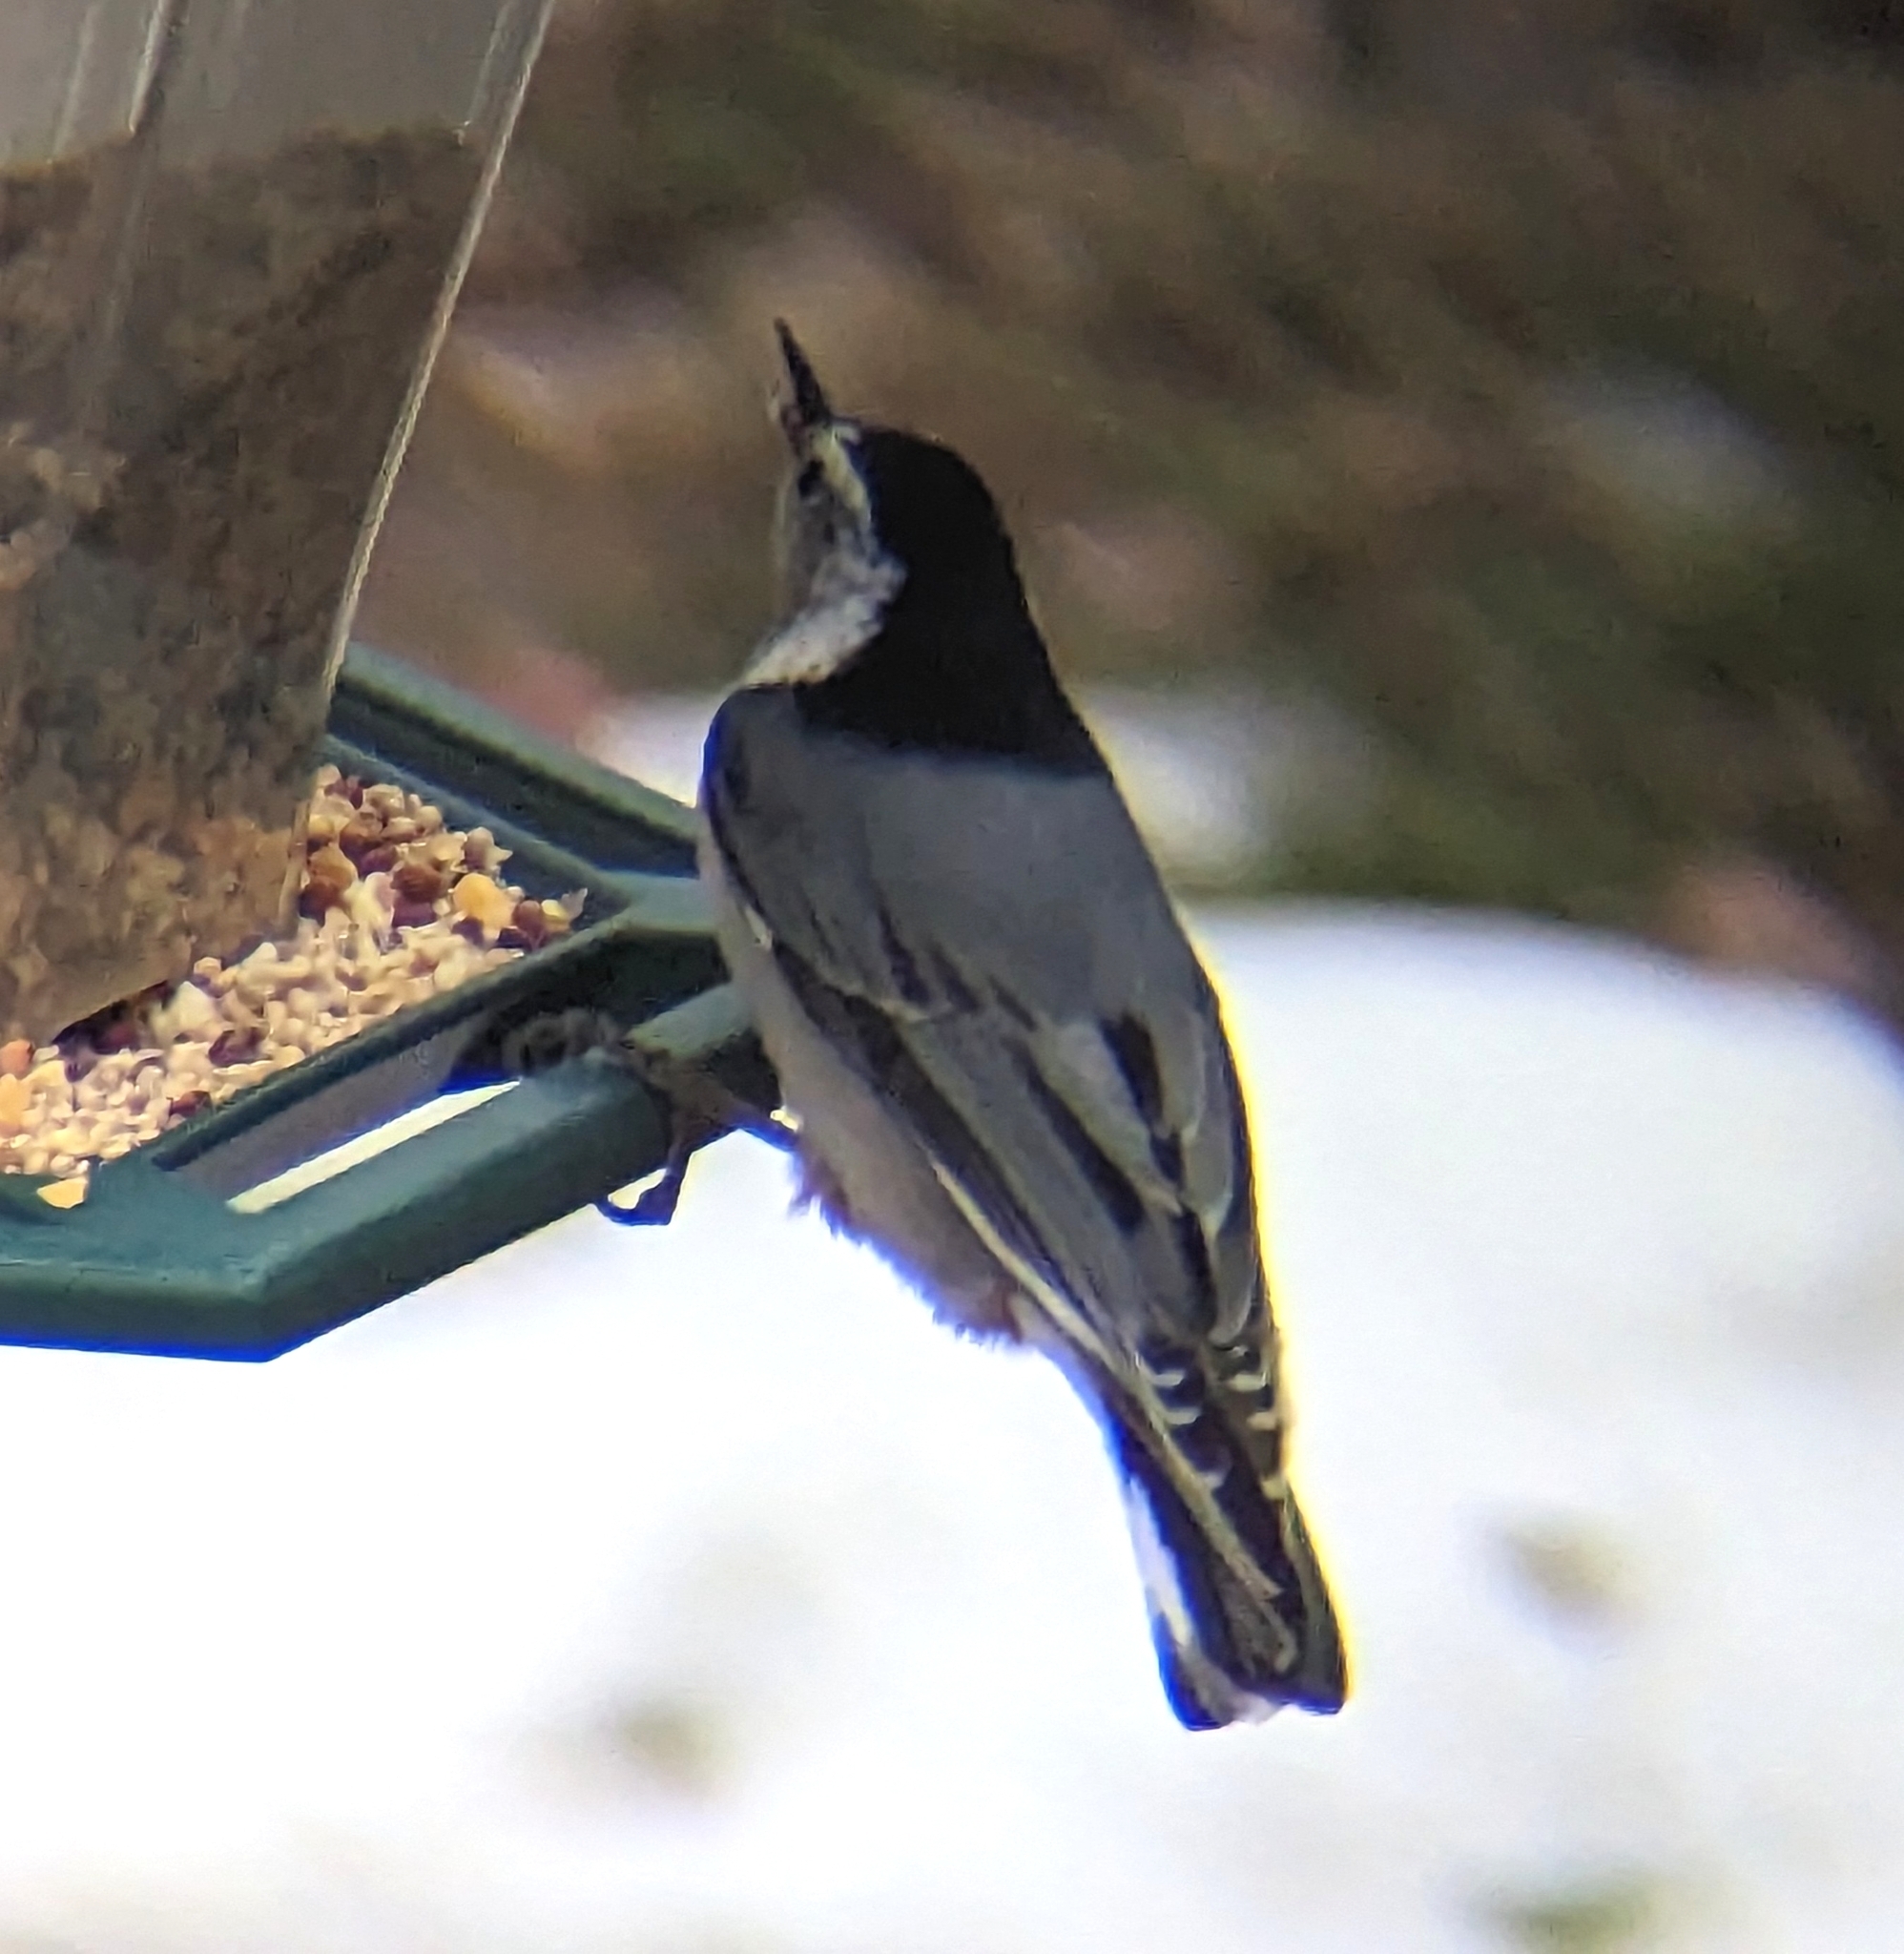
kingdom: Animalia
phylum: Chordata
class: Aves
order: Passeriformes
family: Sittidae
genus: Sitta
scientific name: Sitta carolinensis
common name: White-breasted nuthatch
